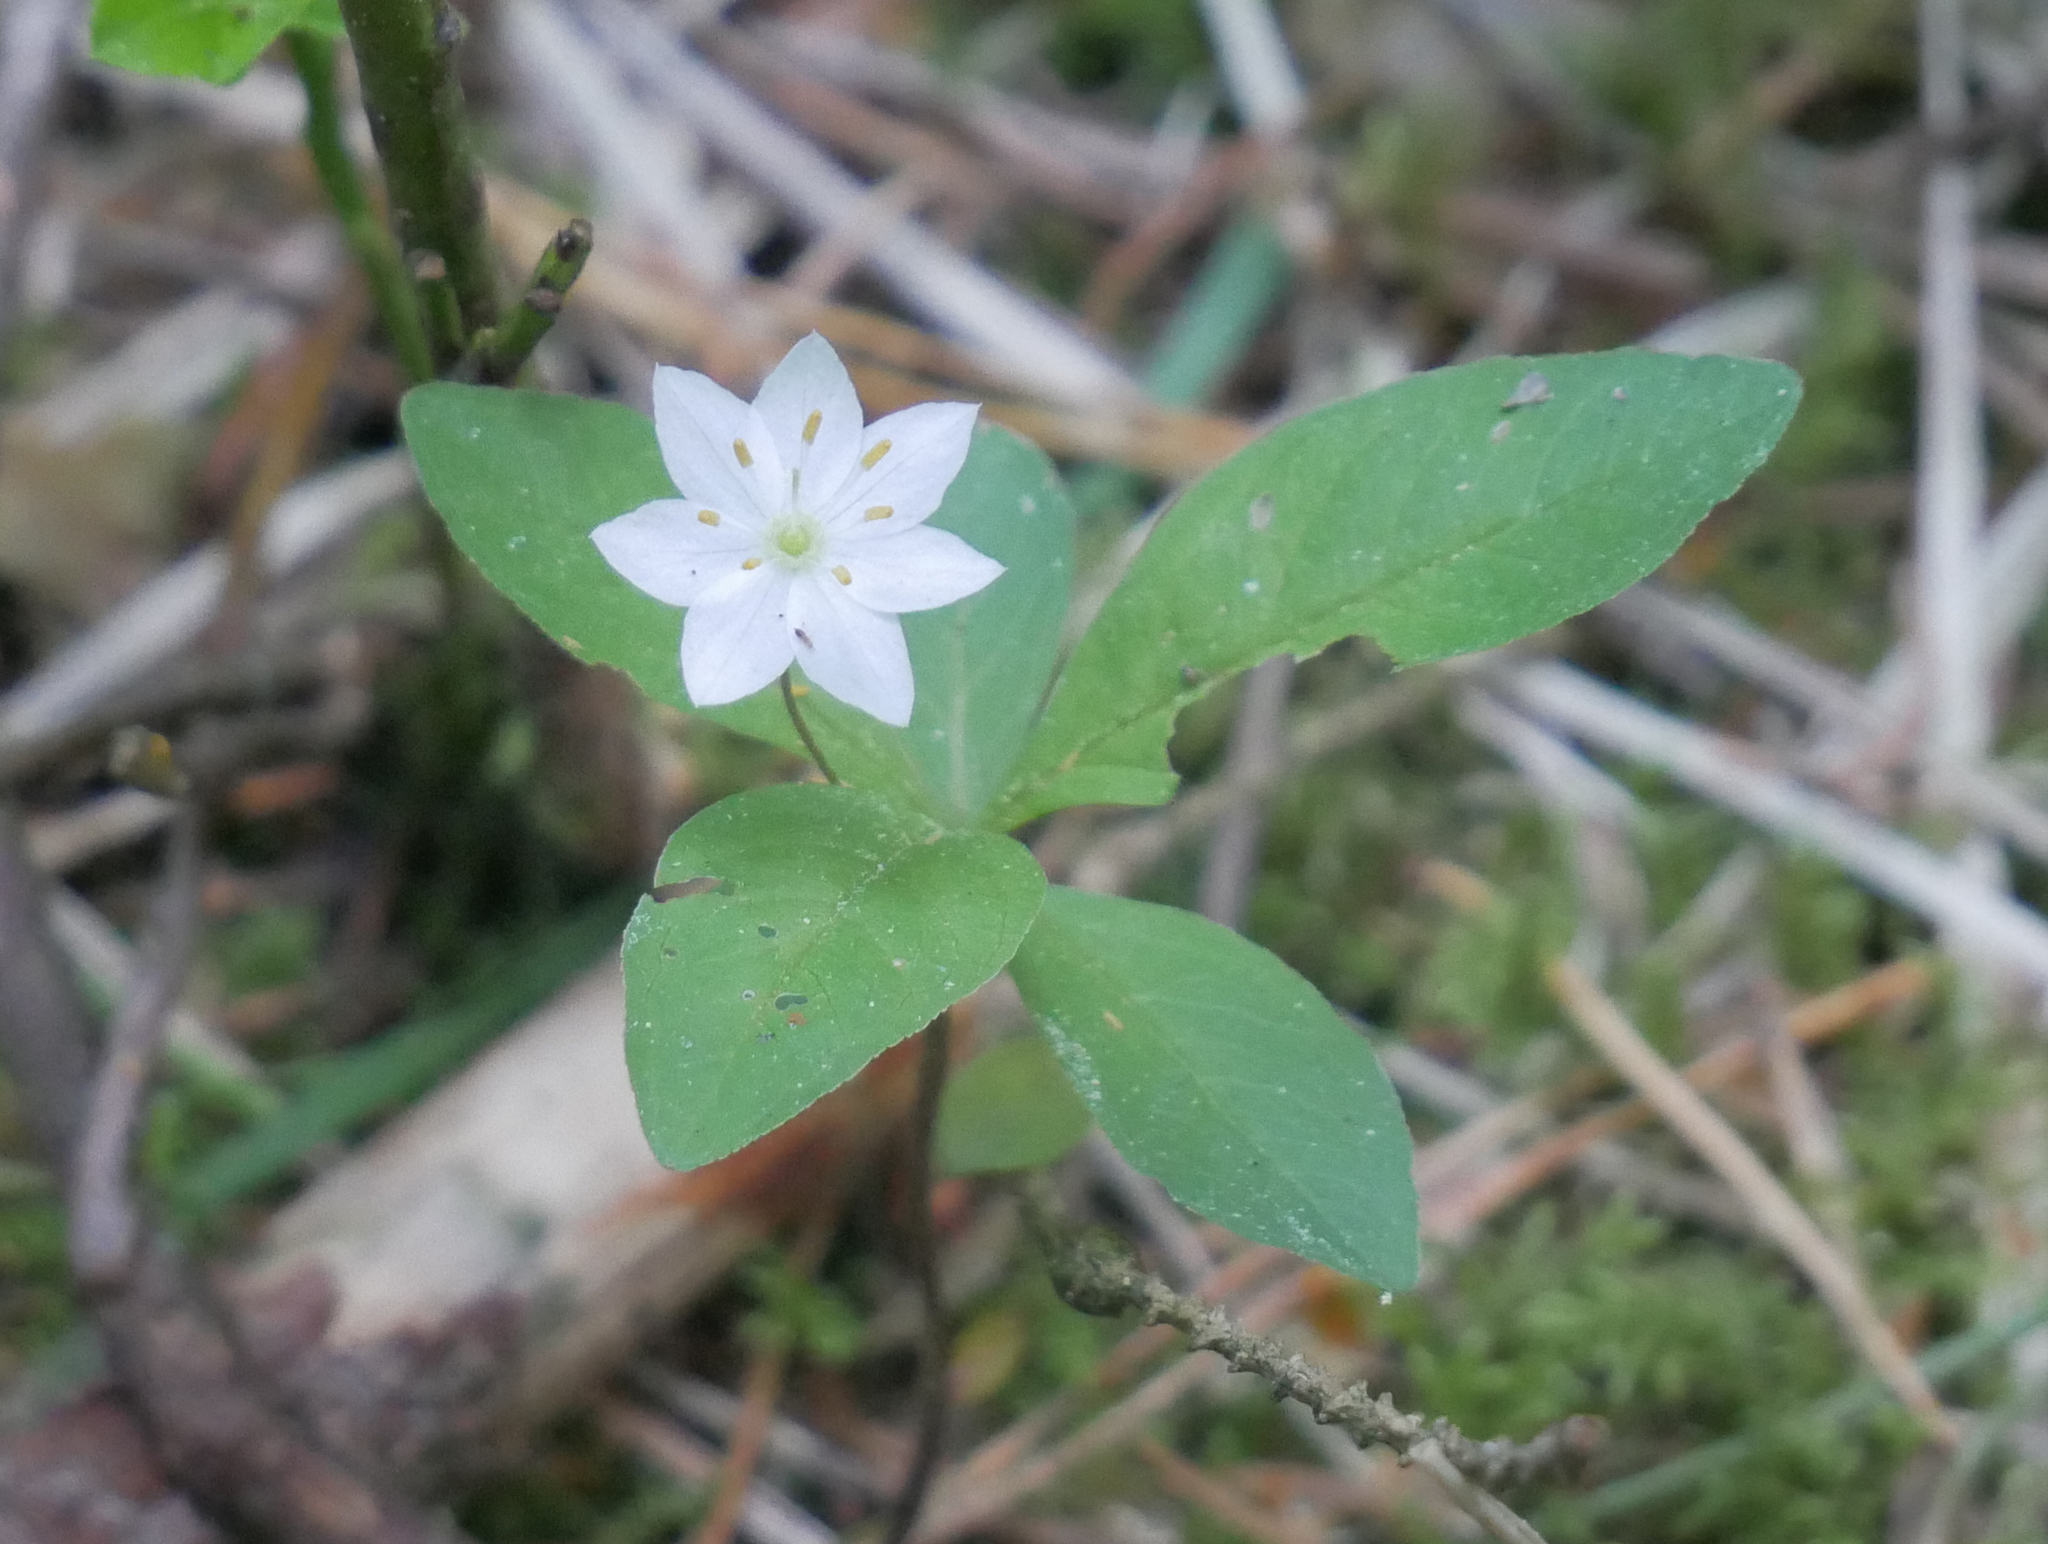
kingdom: Plantae
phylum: Tracheophyta
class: Magnoliopsida
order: Ericales
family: Primulaceae
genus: Lysimachia
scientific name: Lysimachia europaea
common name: Arctic starflower
